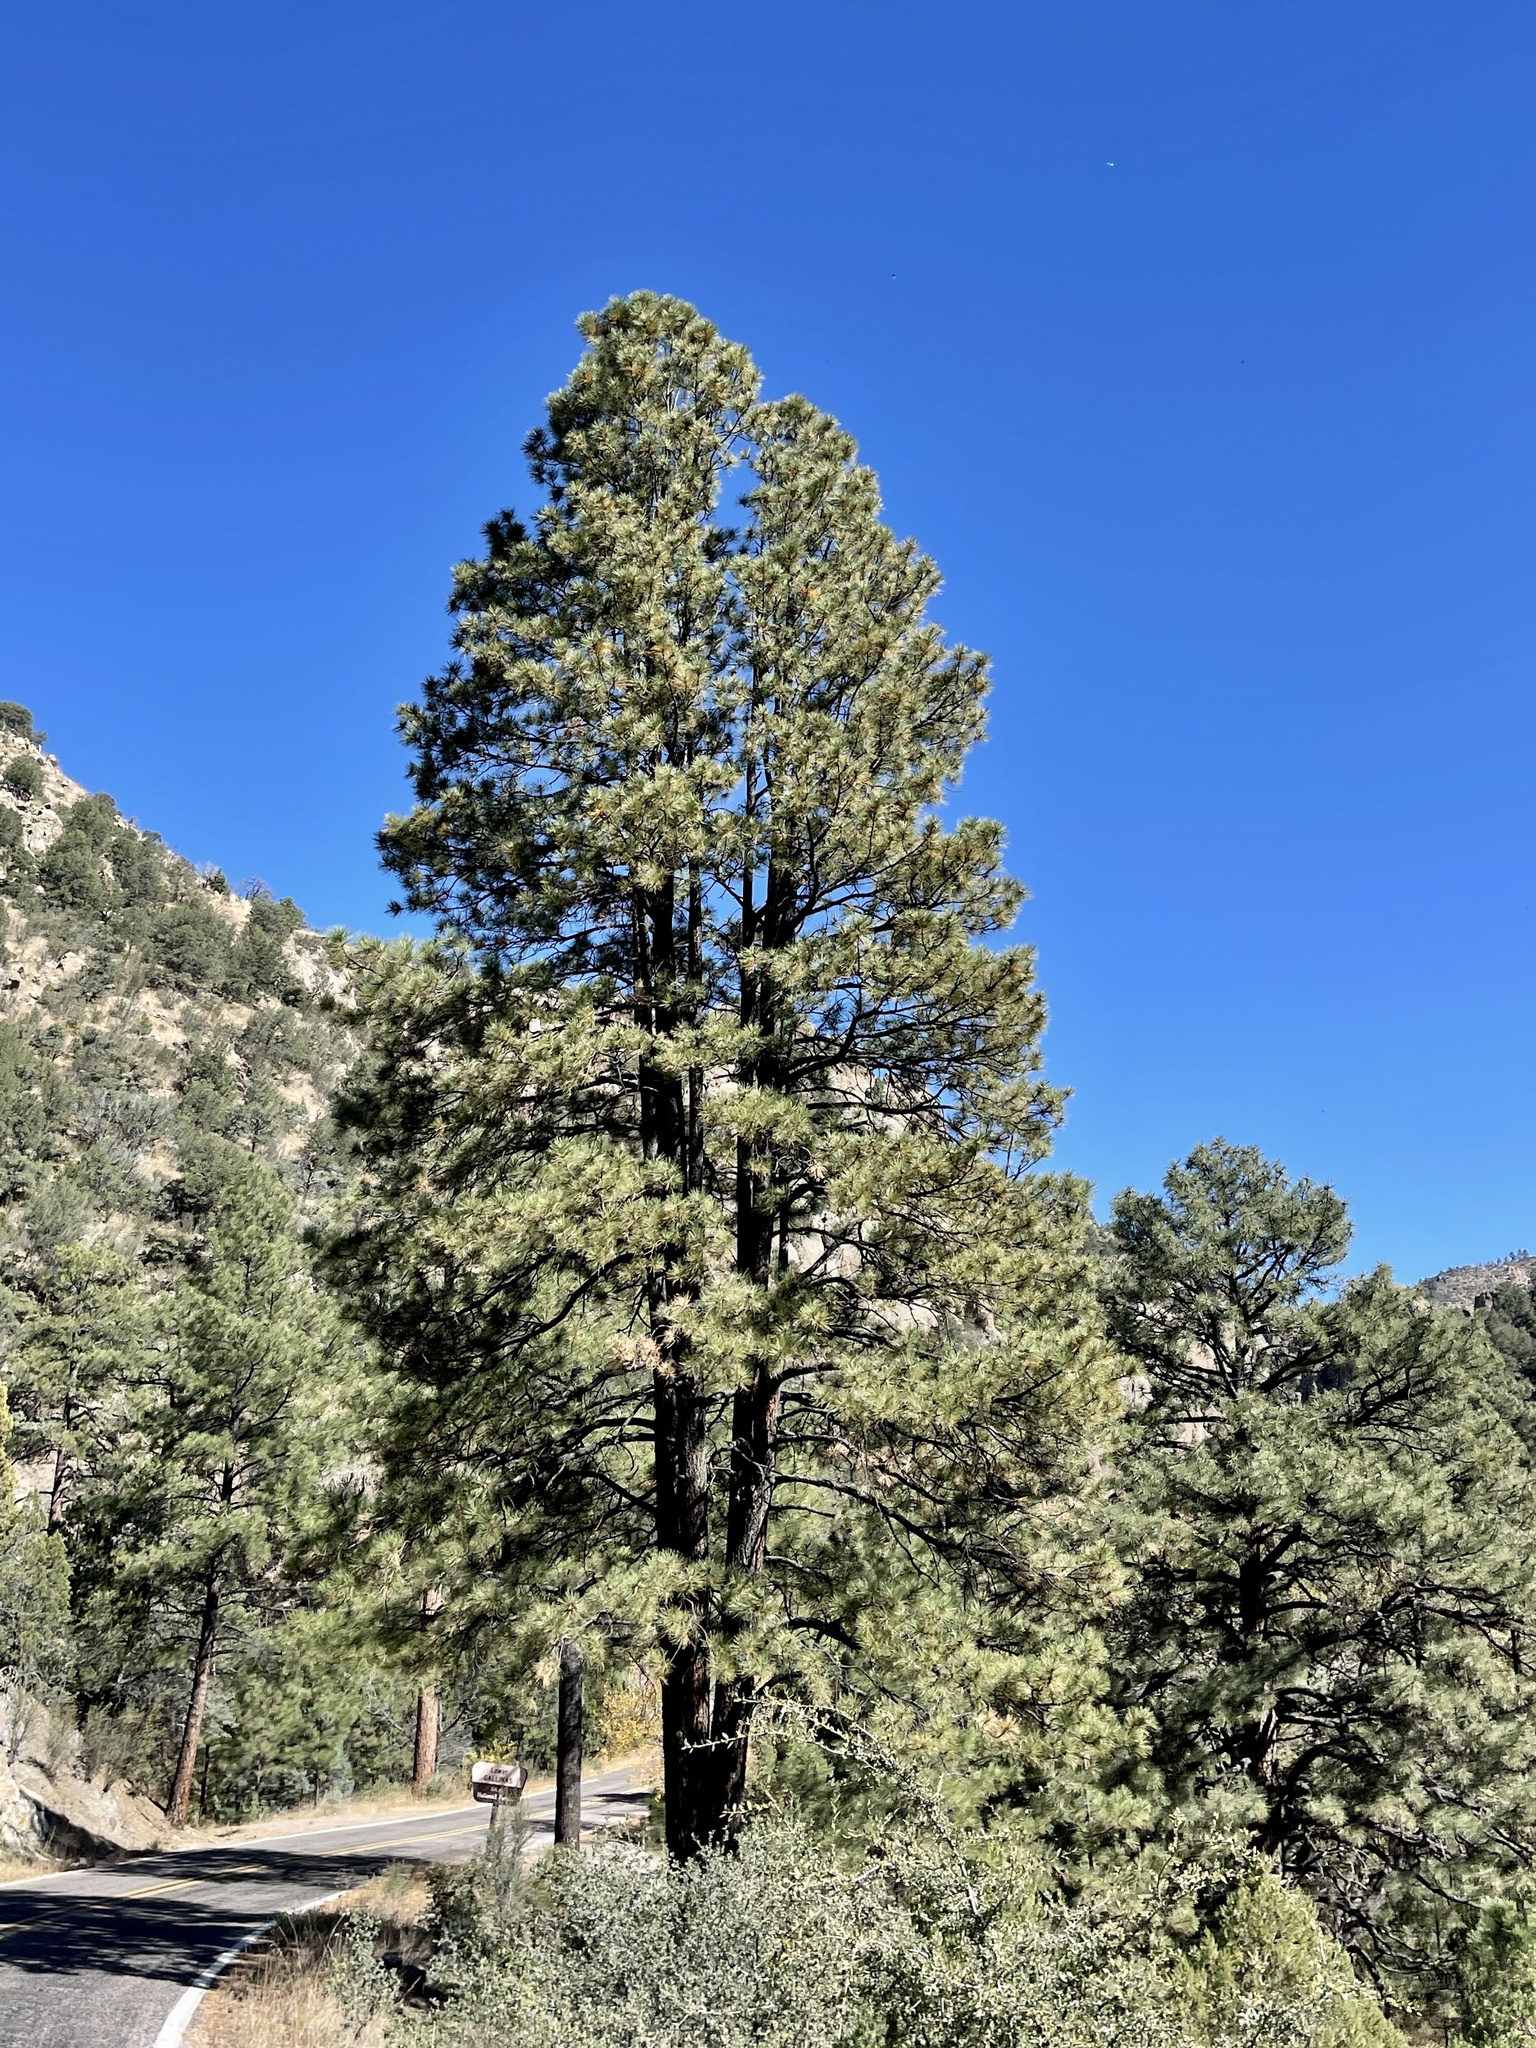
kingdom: Plantae
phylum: Tracheophyta
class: Pinopsida
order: Pinales
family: Pinaceae
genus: Pinus
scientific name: Pinus ponderosa
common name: Western yellow-pine
